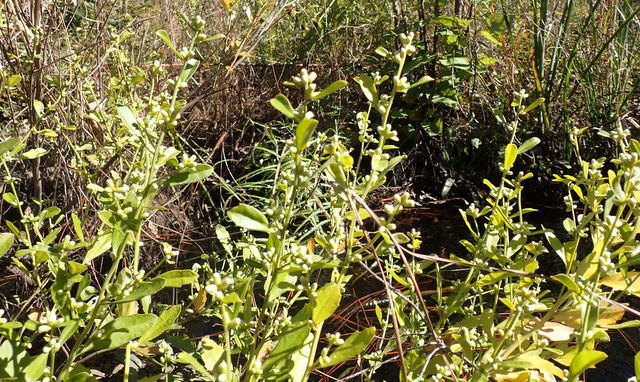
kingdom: Plantae
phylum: Tracheophyta
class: Magnoliopsida
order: Asterales
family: Asteraceae
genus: Baccharis
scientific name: Baccharis glomeruliflora
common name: Silverling groundsel bush
